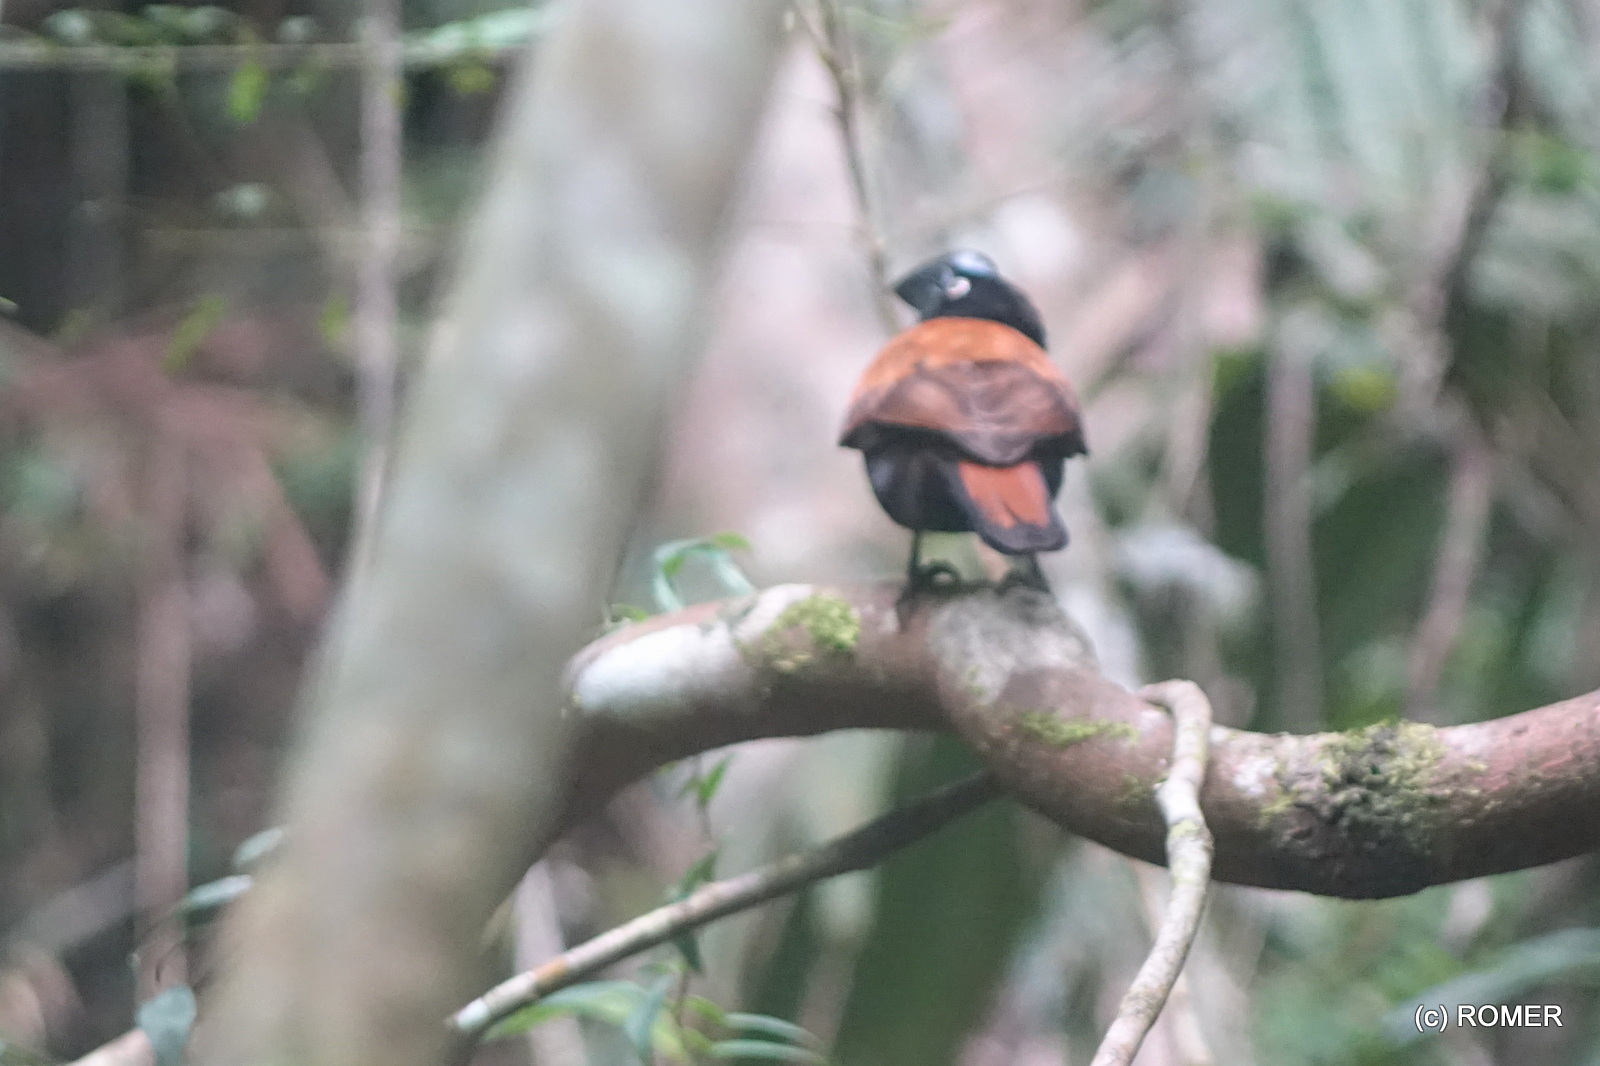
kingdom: Animalia
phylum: Chordata
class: Aves
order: Passeriformes
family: Vangidae
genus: Euryceros
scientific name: Euryceros prevostii
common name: Helmet vanga
